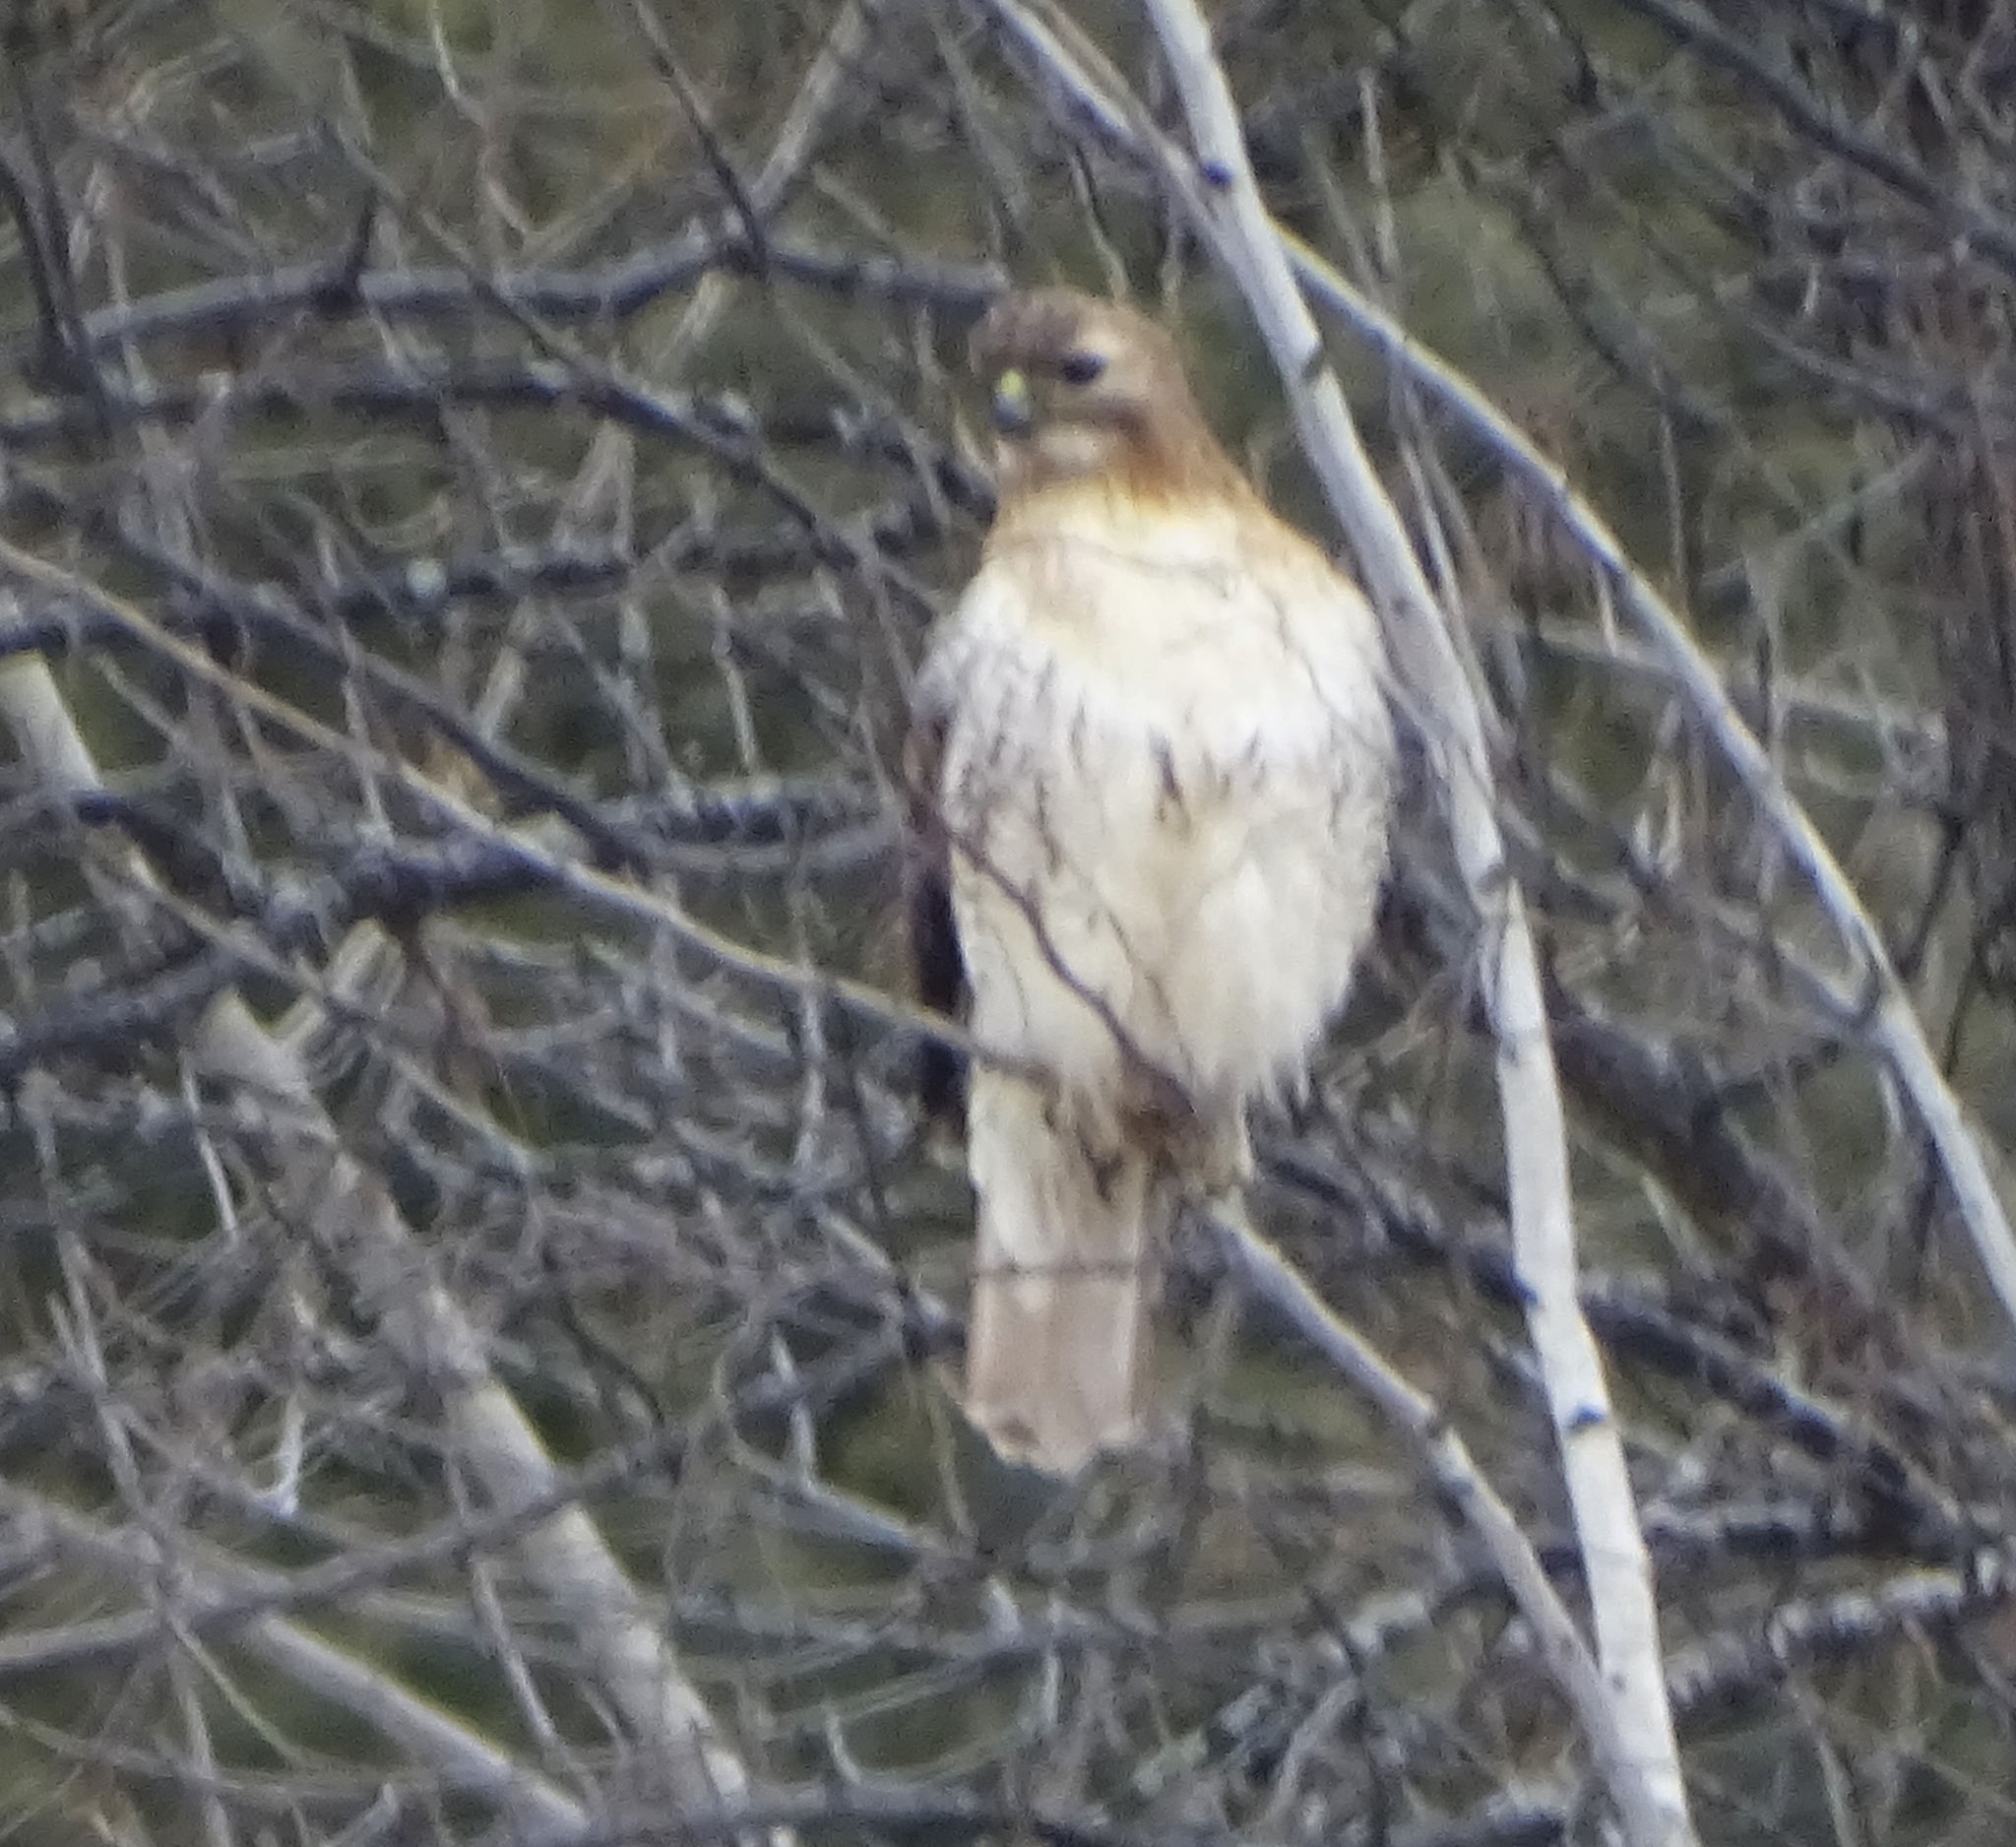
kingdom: Animalia
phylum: Chordata
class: Aves
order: Accipitriformes
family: Accipitridae
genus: Buteo
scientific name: Buteo jamaicensis
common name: Red-tailed hawk
